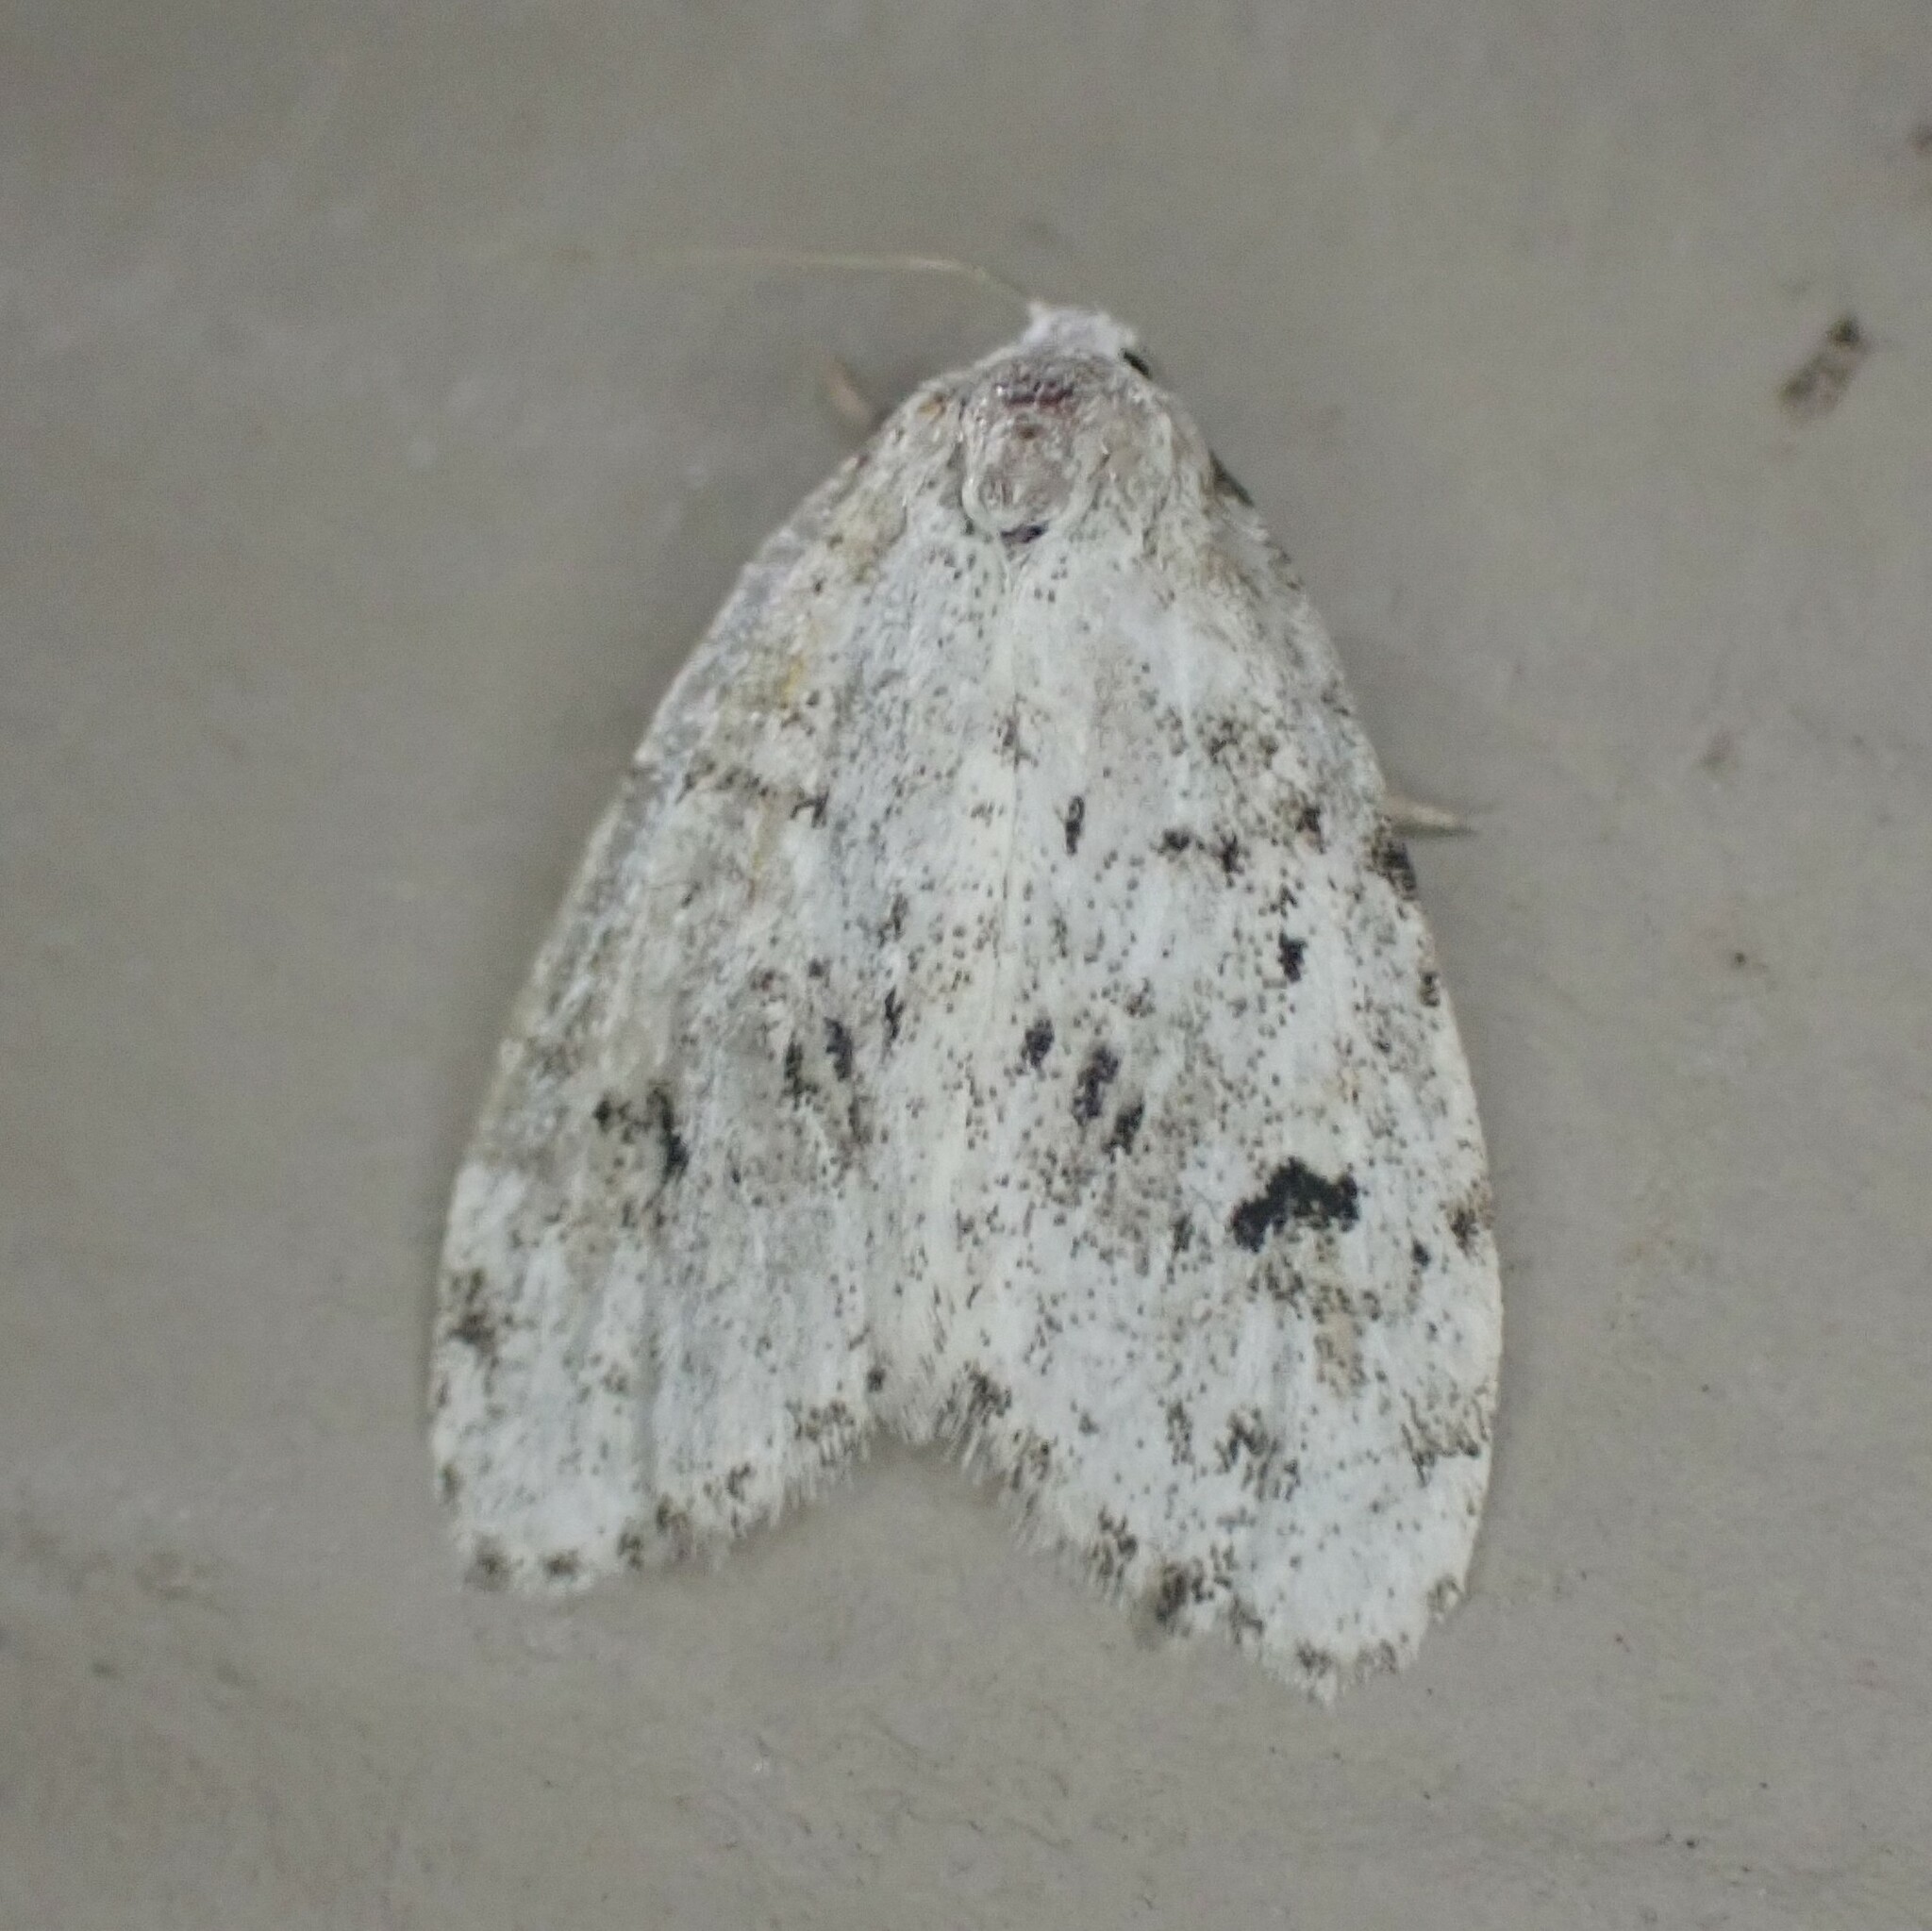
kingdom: Animalia
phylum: Arthropoda
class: Insecta
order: Lepidoptera
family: Erebidae
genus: Clemensia
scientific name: Clemensia umbrata
